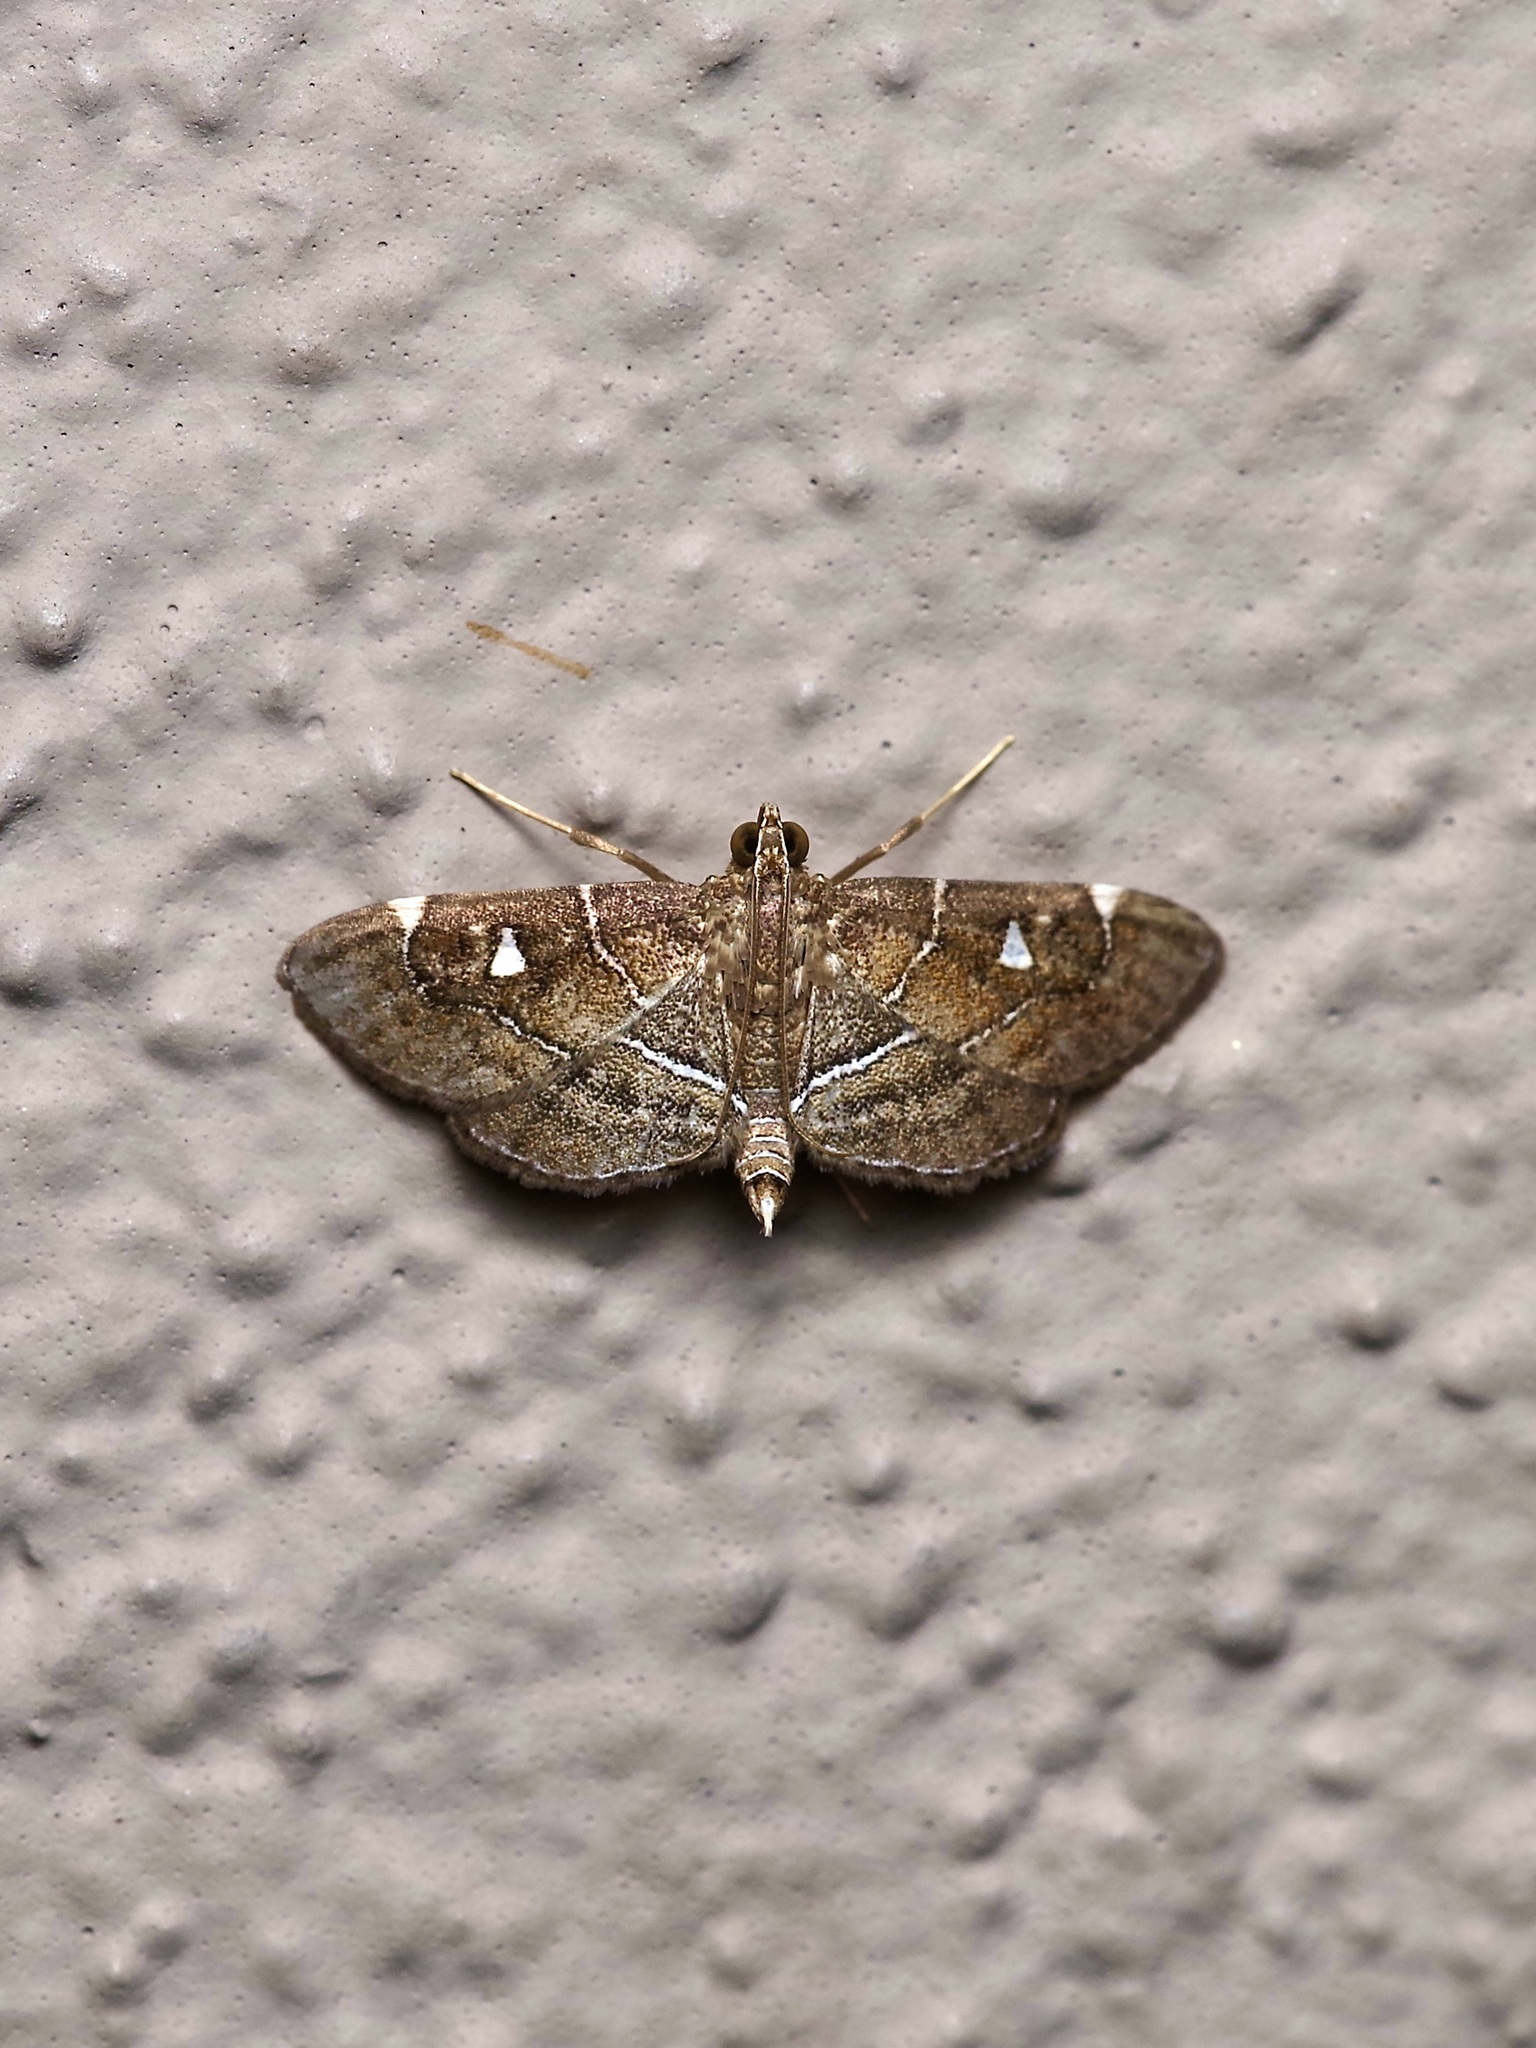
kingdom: Animalia
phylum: Arthropoda
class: Insecta
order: Lepidoptera
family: Crambidae
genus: Lamprosema
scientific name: Lamprosema victoriae
